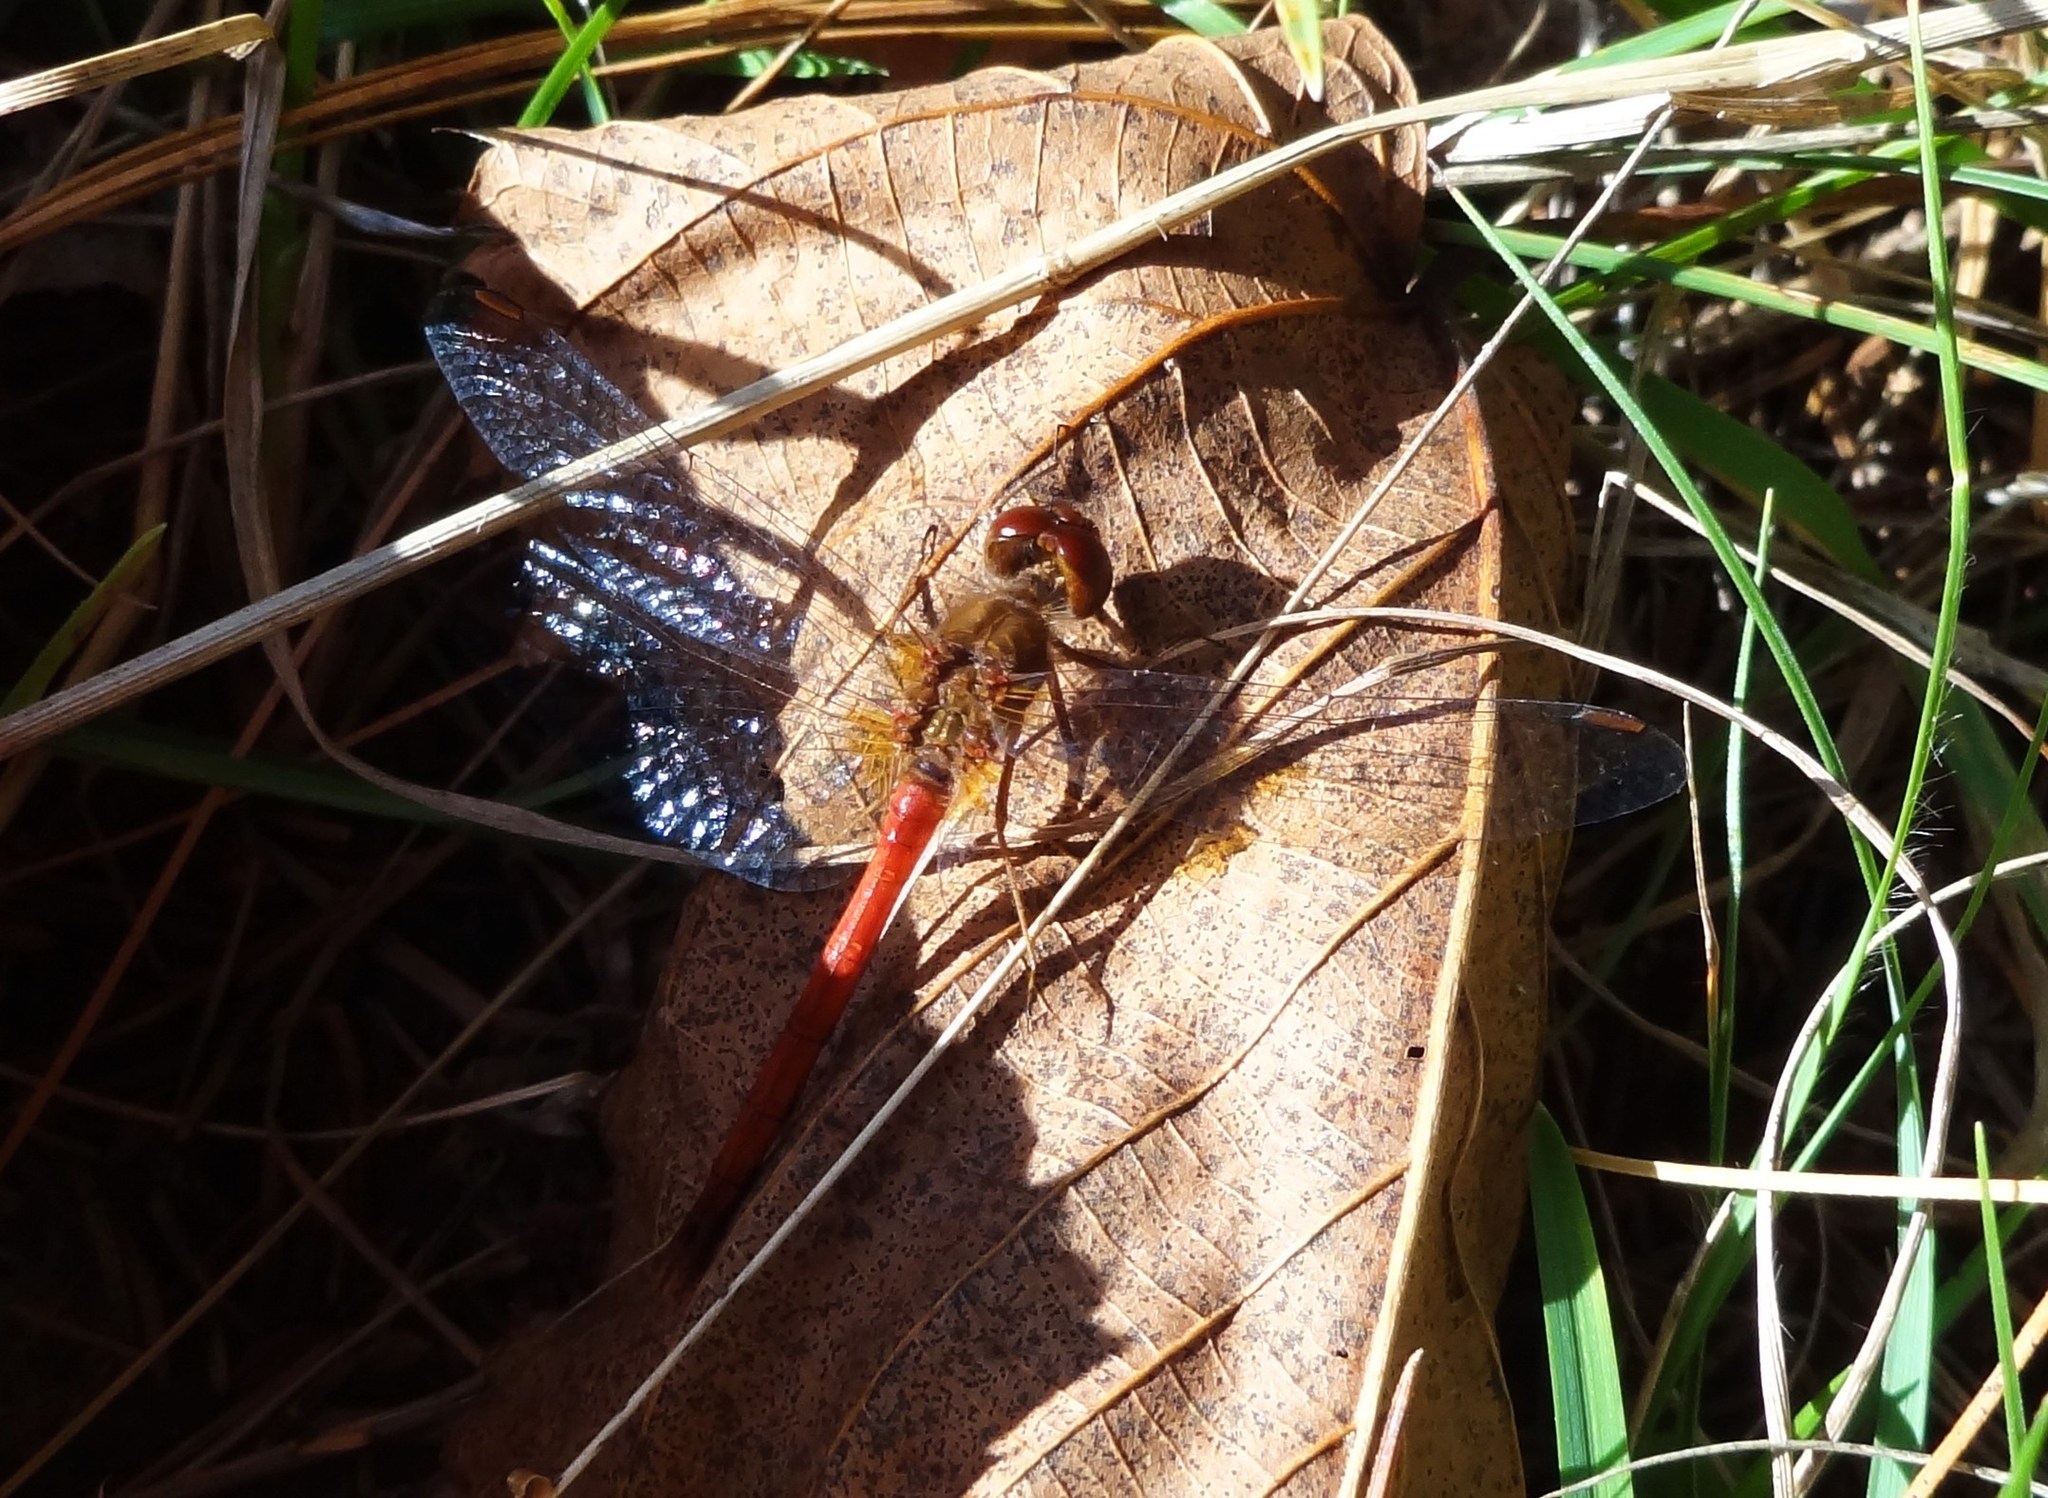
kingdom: Animalia
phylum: Arthropoda
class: Insecta
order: Odonata
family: Libellulidae
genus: Sympetrum
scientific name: Sympetrum vicinum
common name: Autumn meadowhawk
